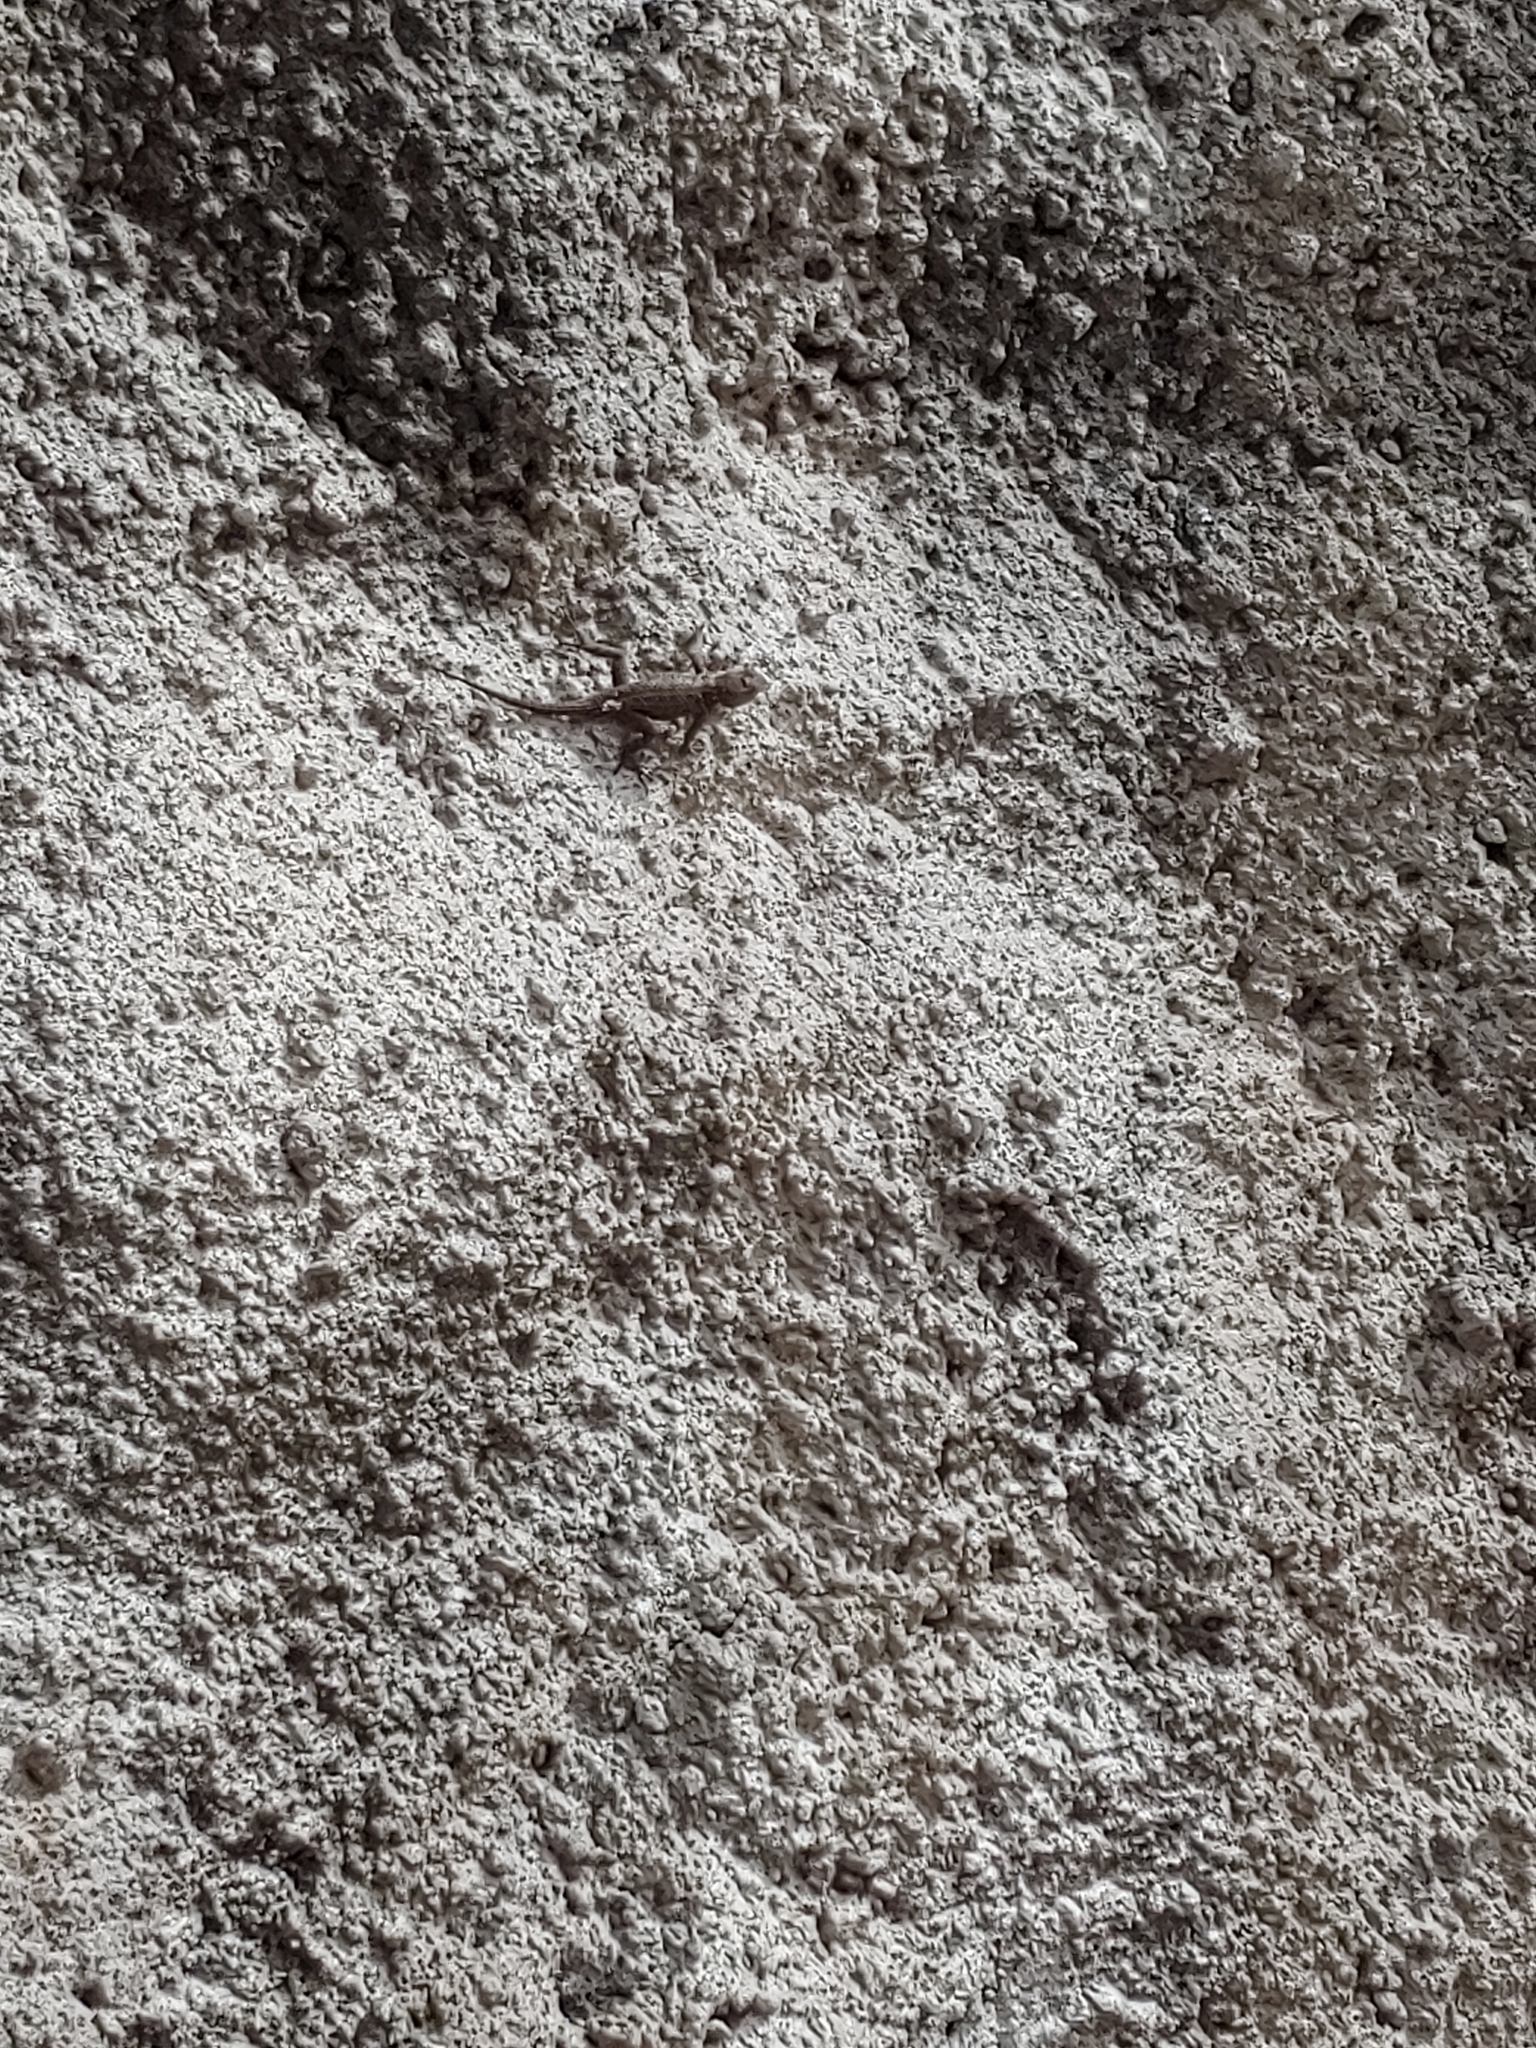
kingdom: Animalia
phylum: Chordata
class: Squamata
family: Phrynosomatidae
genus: Sceloporus
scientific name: Sceloporus torquatus
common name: Central plateau torquate lizard [melanogaster]
